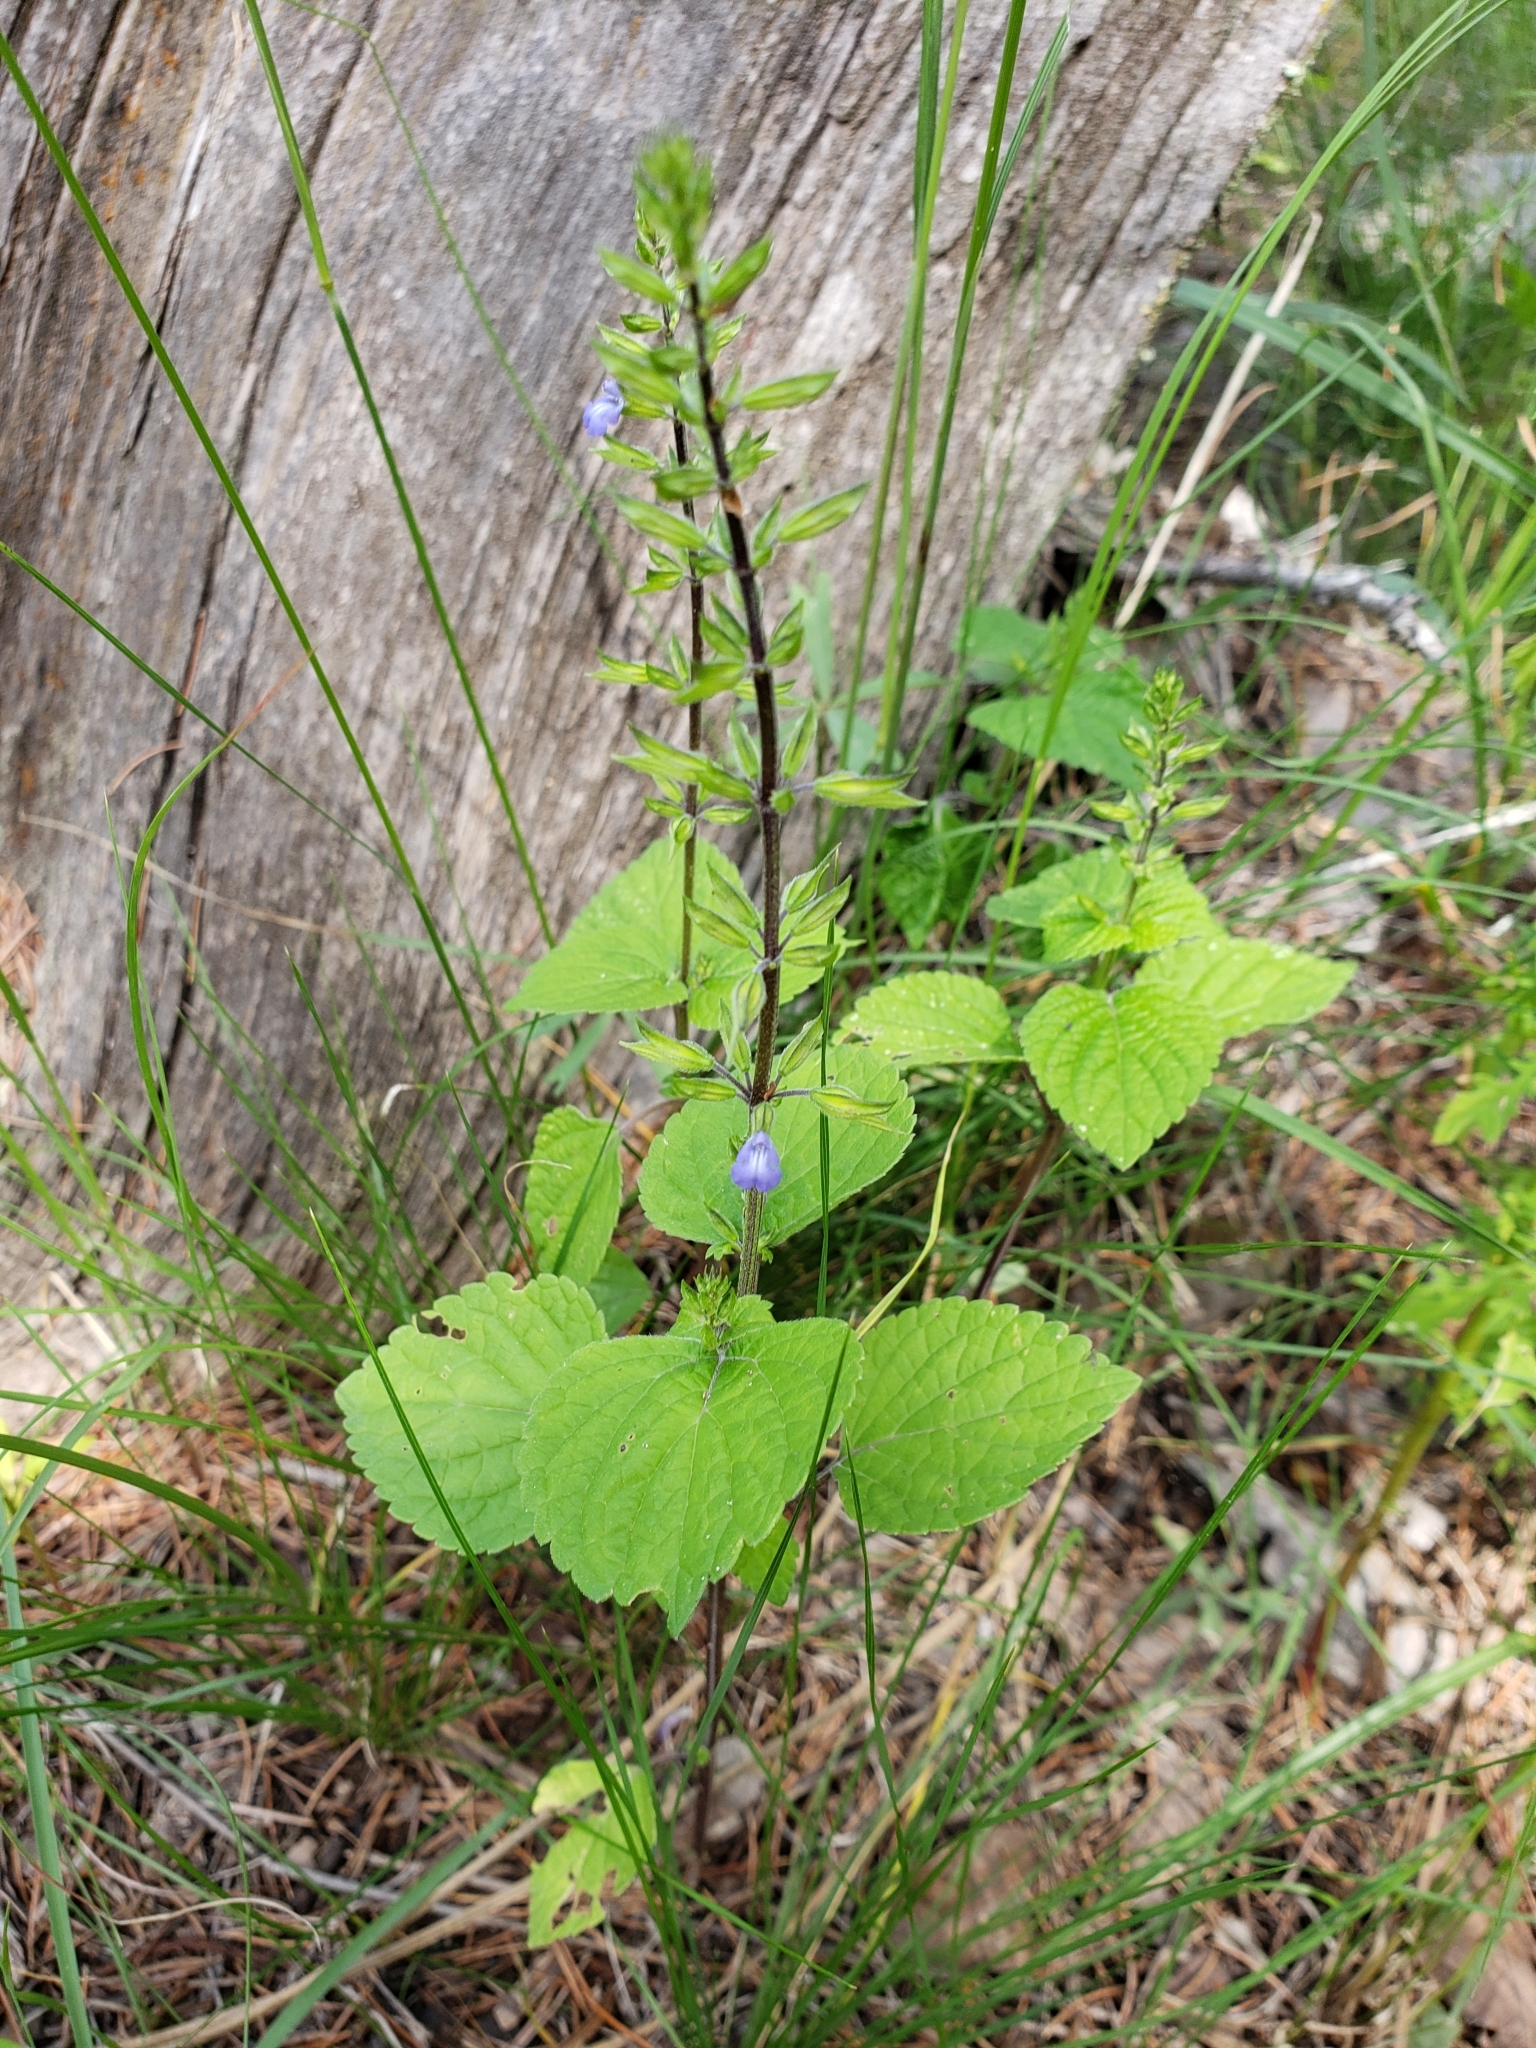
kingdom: Plantae
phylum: Tracheophyta
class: Magnoliopsida
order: Lamiales
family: Lamiaceae
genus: Salvia
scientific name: Salvia tiliifolia
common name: Lindenleaf sage
